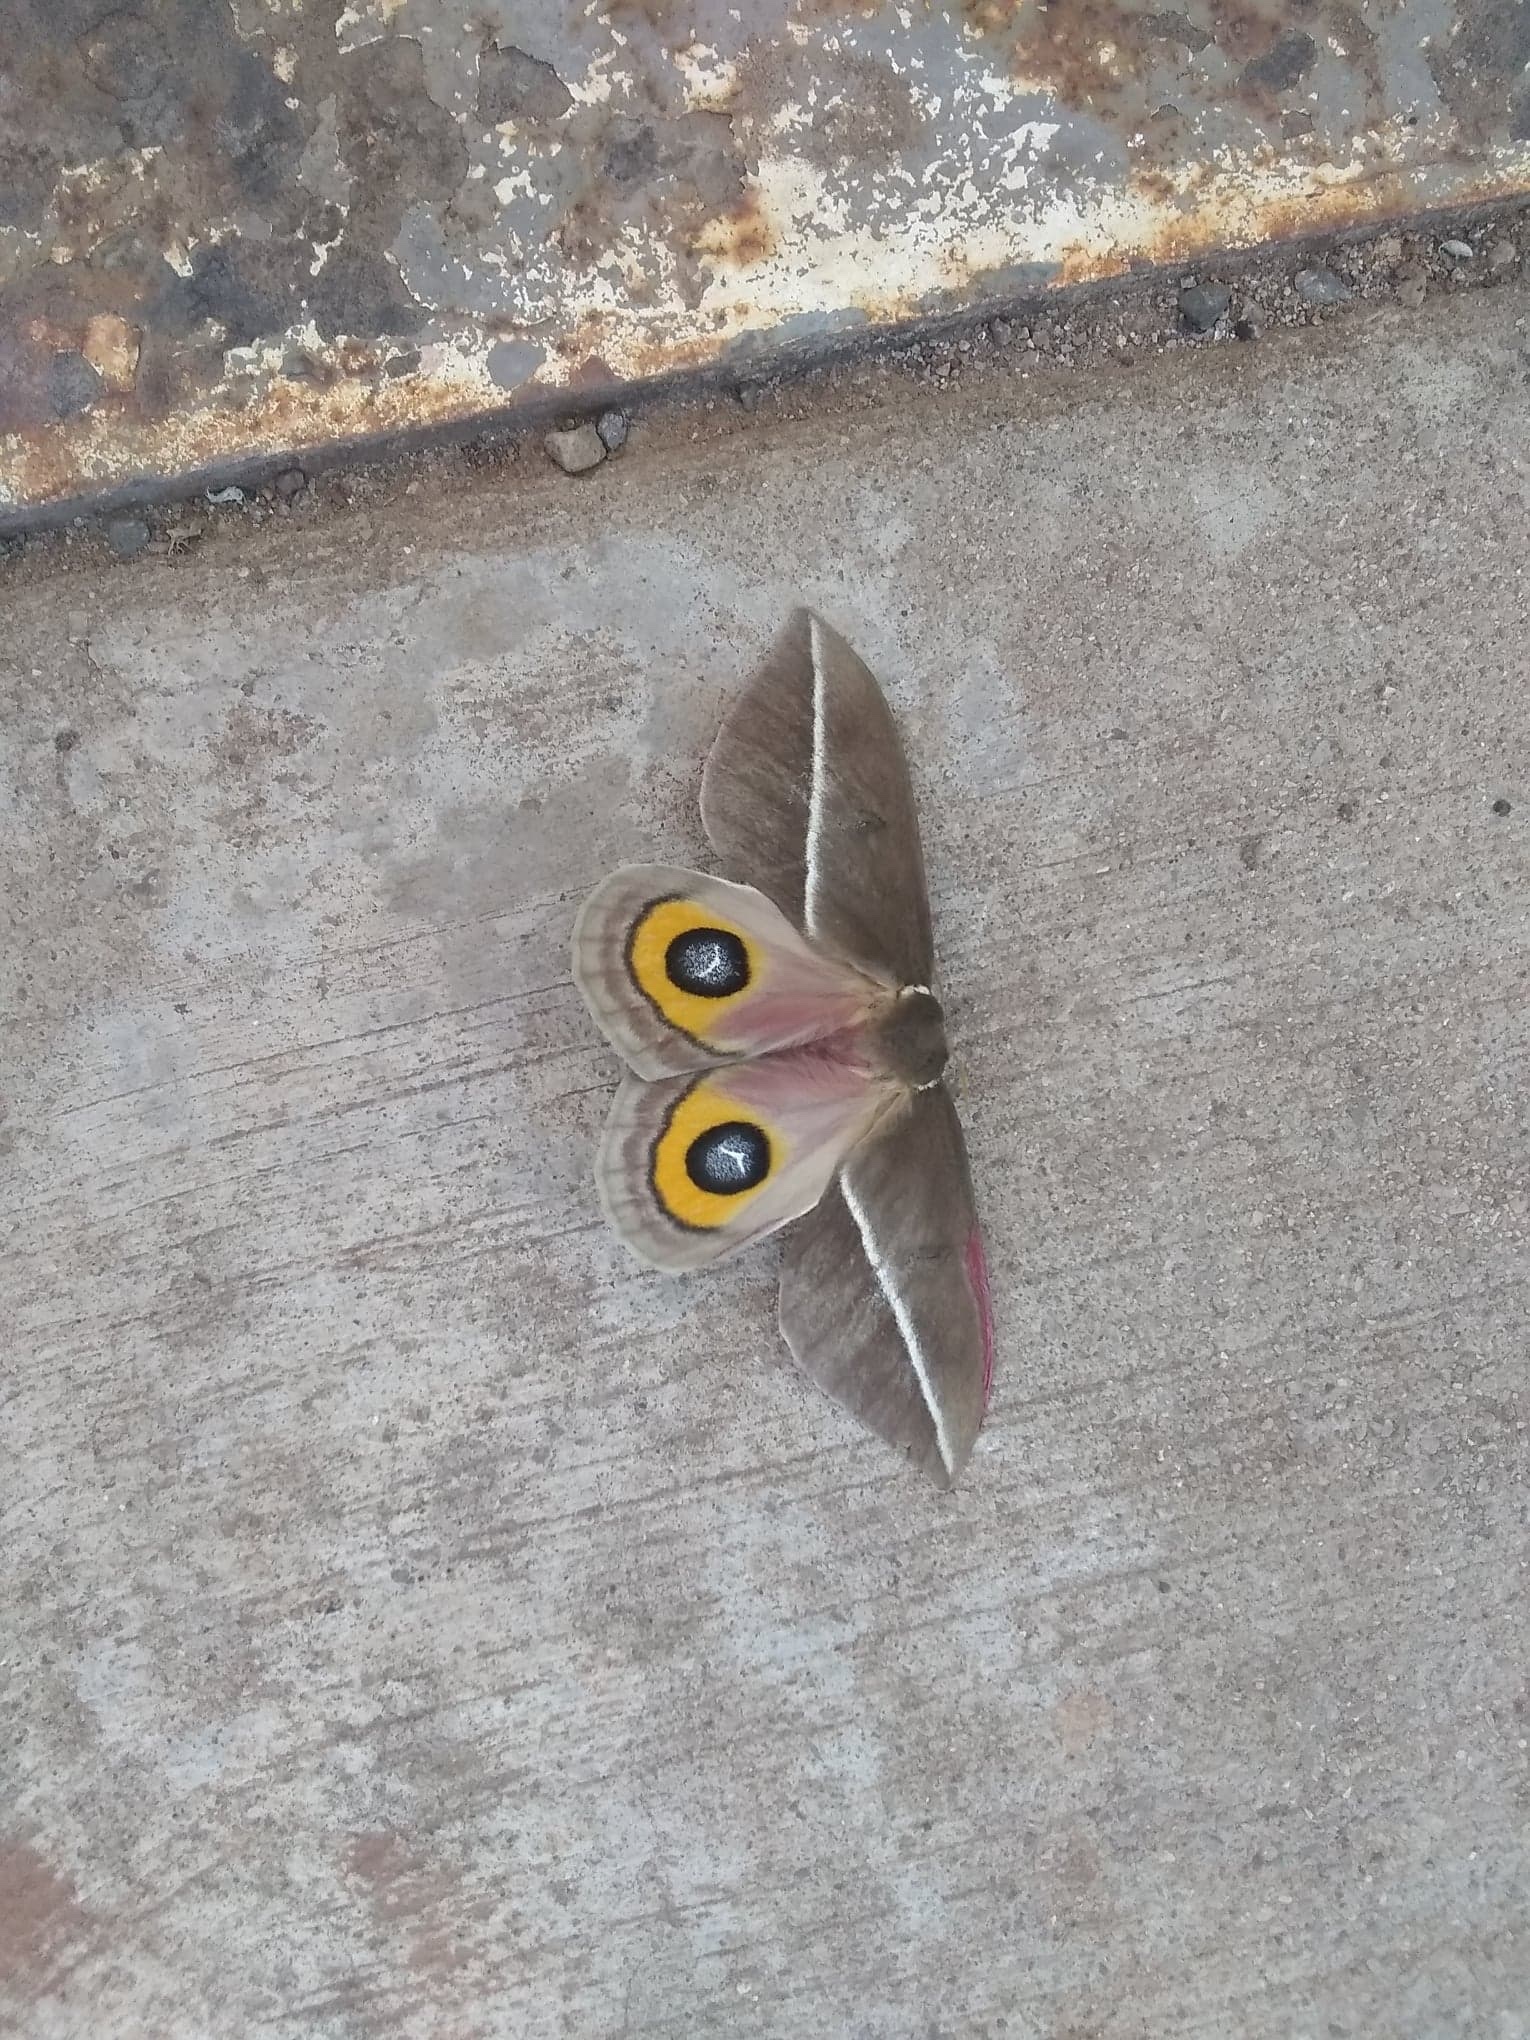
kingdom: Animalia
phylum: Arthropoda
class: Insecta
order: Lepidoptera
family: Saturniidae
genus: Automeris
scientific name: Automeris zephyria
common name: Zephyr eyed silkmoth
